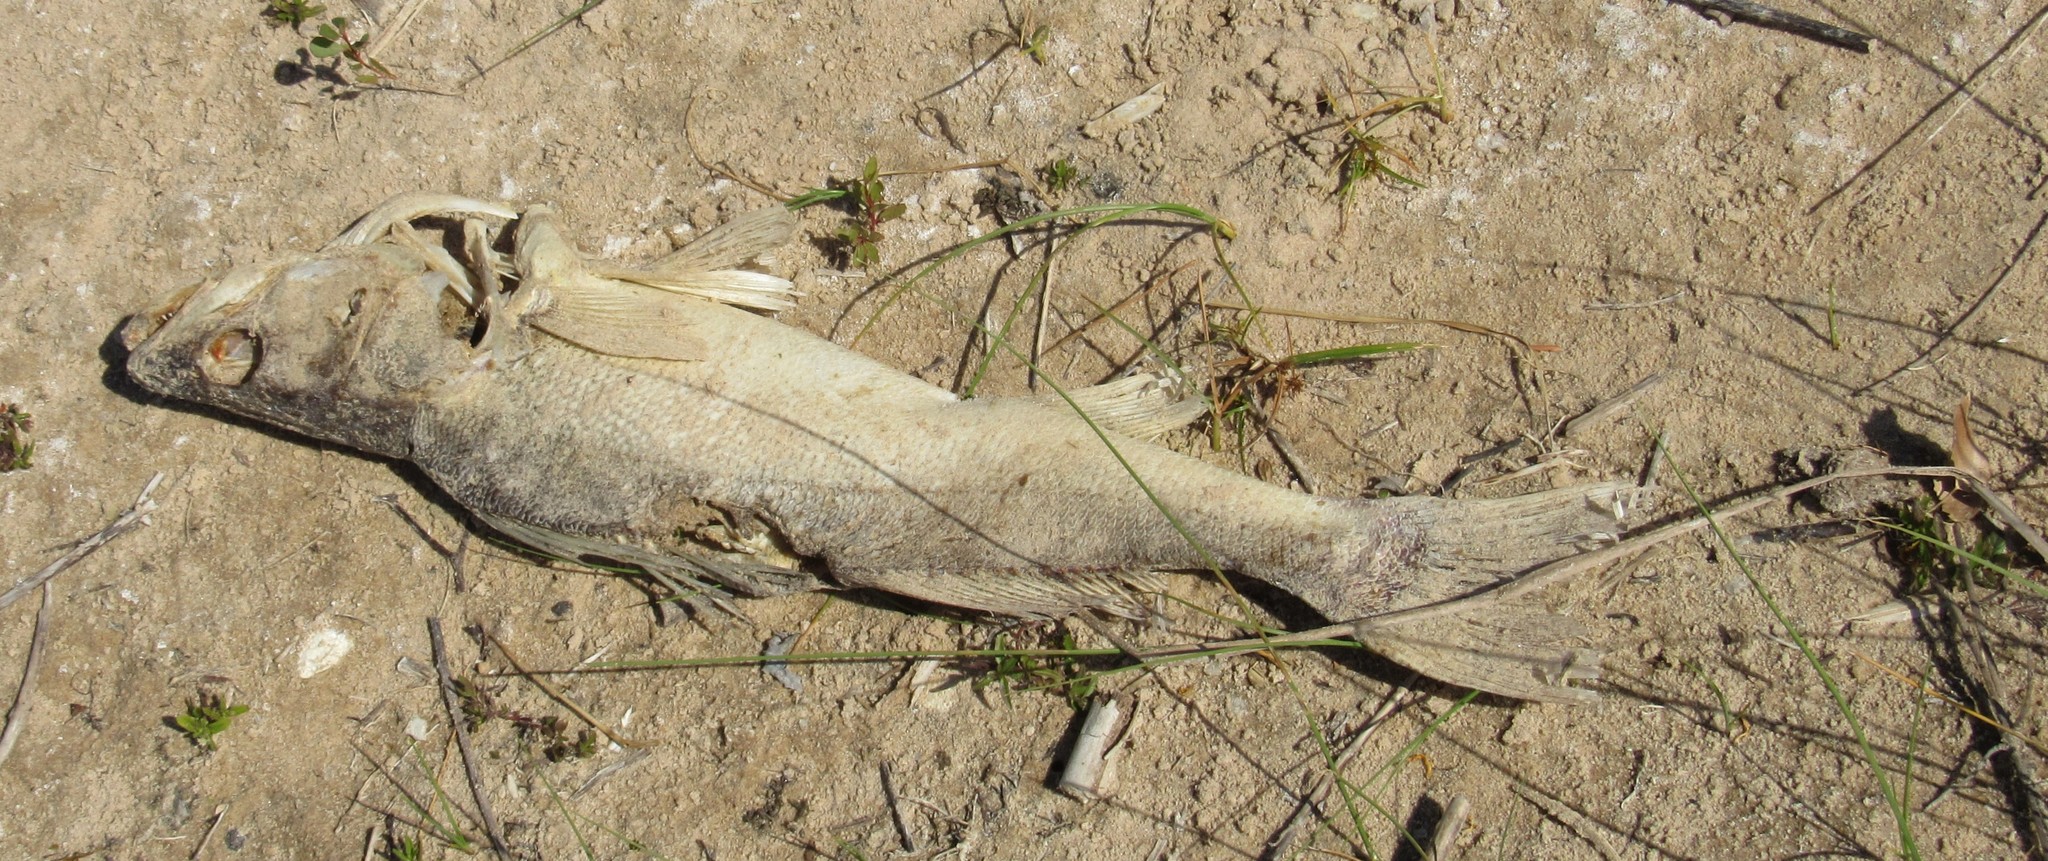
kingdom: Animalia
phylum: Chordata
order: Perciformes
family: Percidae
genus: Sander
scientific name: Sander vitreus
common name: Walleye
